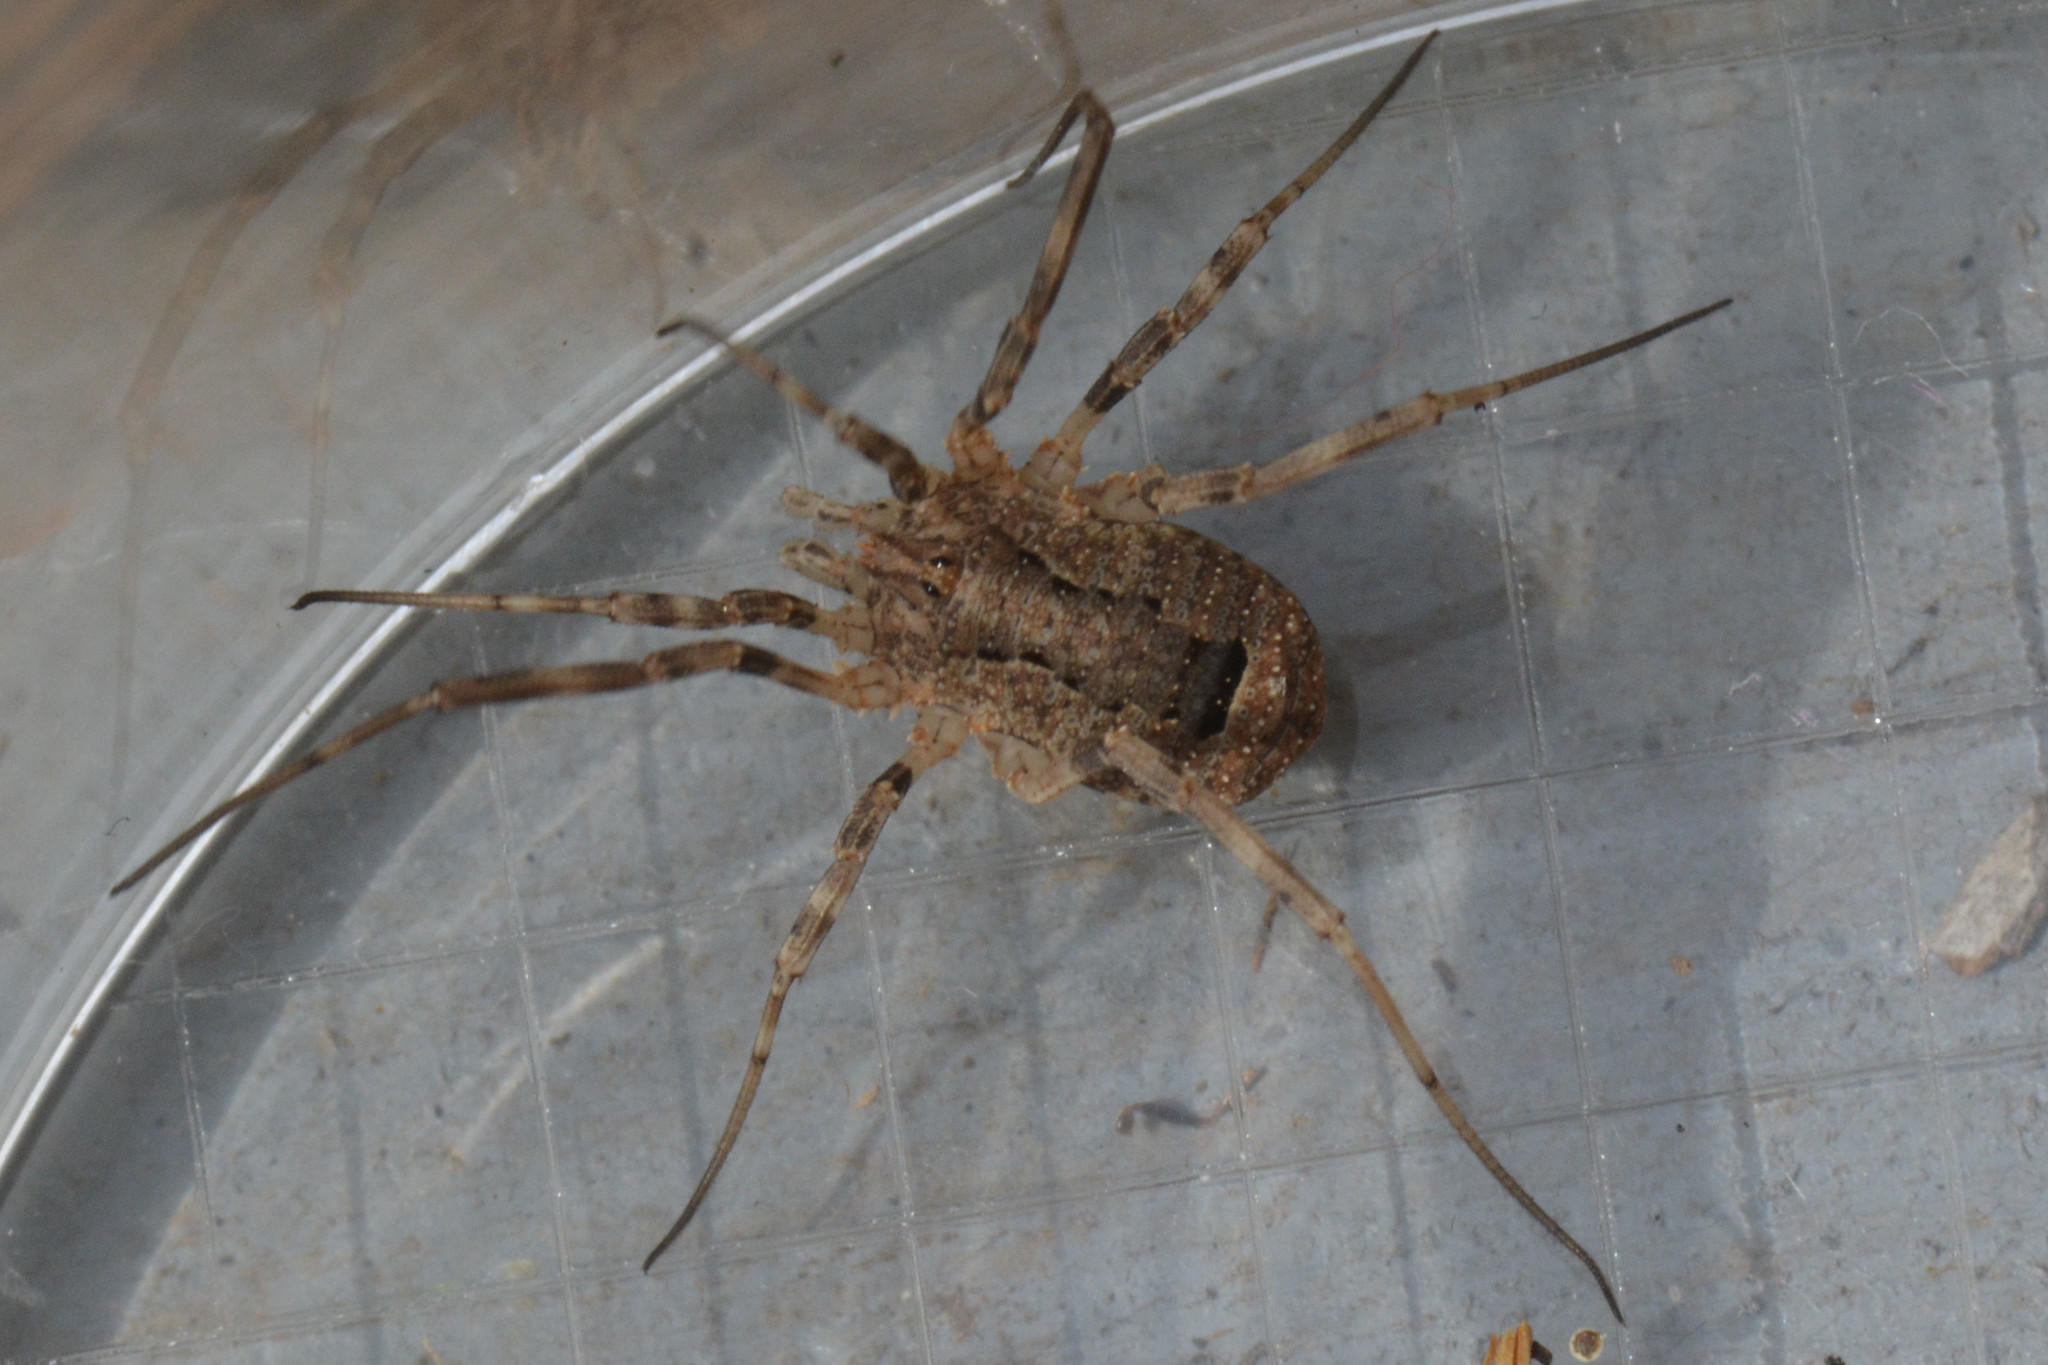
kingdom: Animalia
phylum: Arthropoda
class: Arachnida
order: Opiliones
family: Phalangiidae
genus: Odiellus
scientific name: Odiellus spinosus
